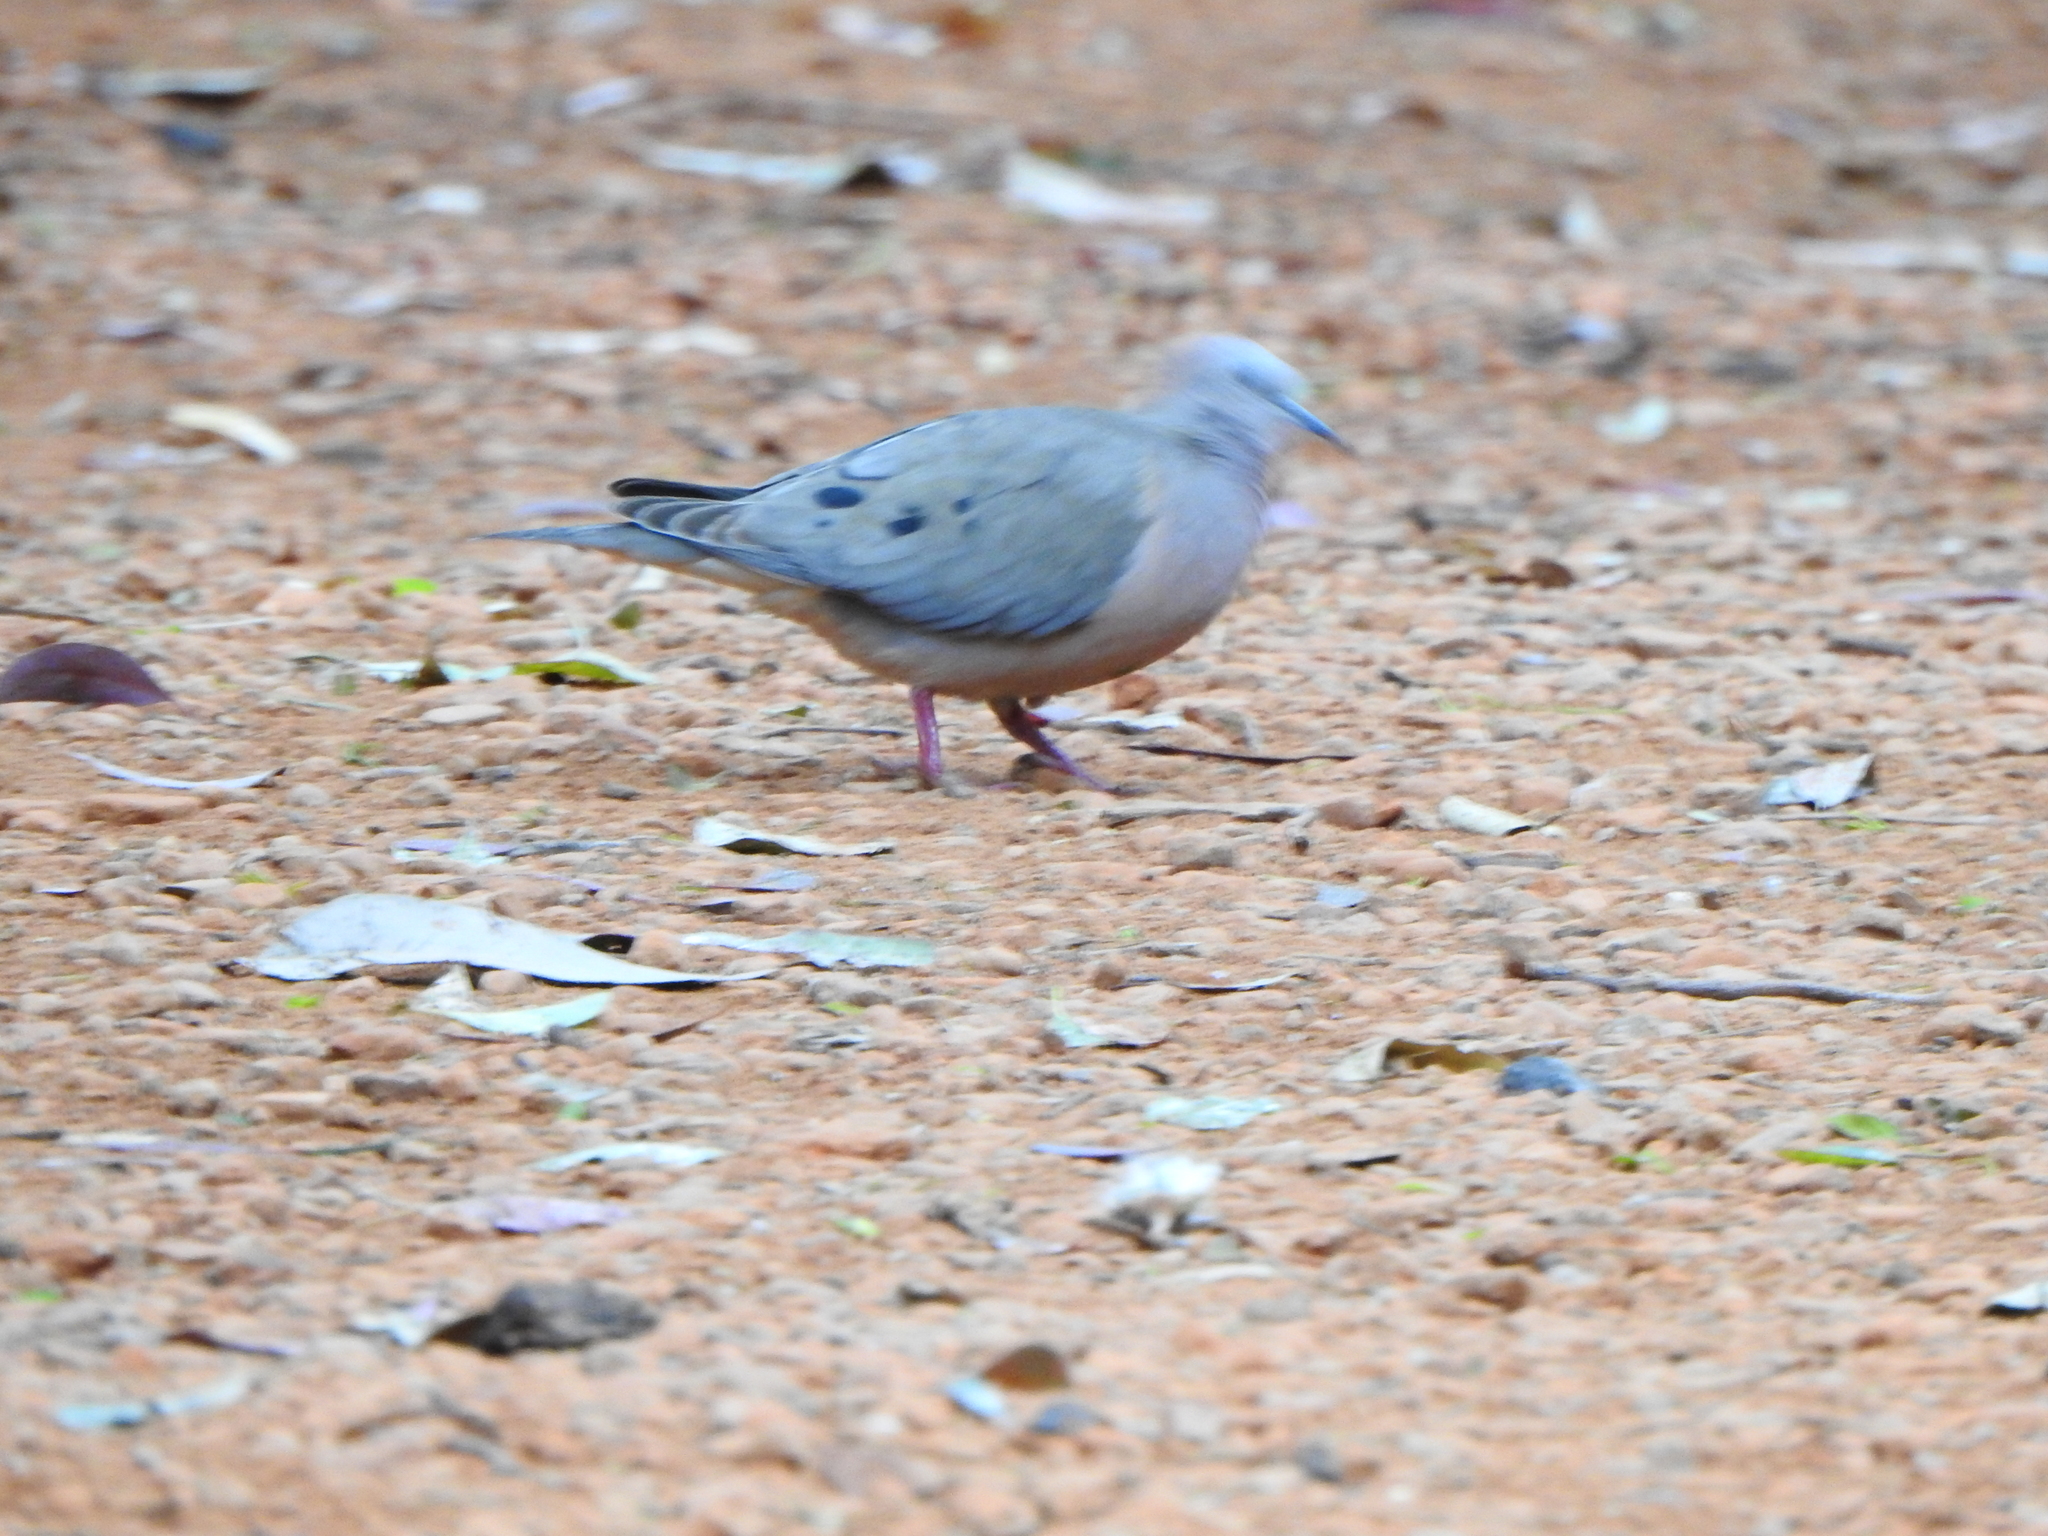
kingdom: Animalia
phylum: Chordata
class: Aves
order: Columbiformes
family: Columbidae
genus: Zenaida
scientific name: Zenaida auriculata
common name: Eared dove
